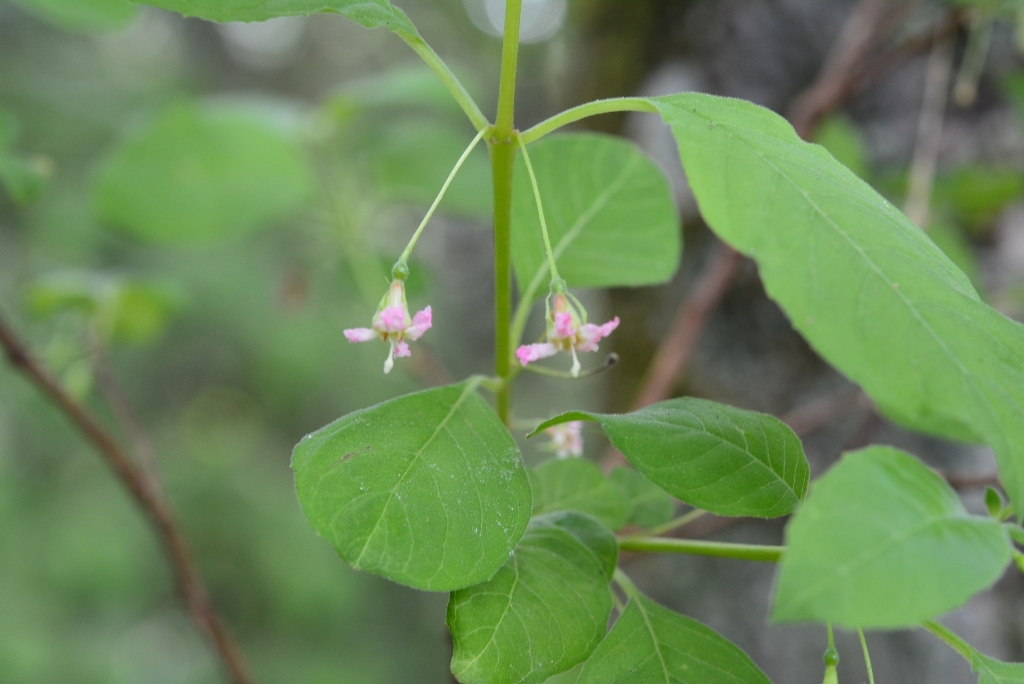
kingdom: Plantae
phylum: Tracheophyta
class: Magnoliopsida
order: Myrtales
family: Onagraceae
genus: Fuchsia
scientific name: Fuchsia encliandra
